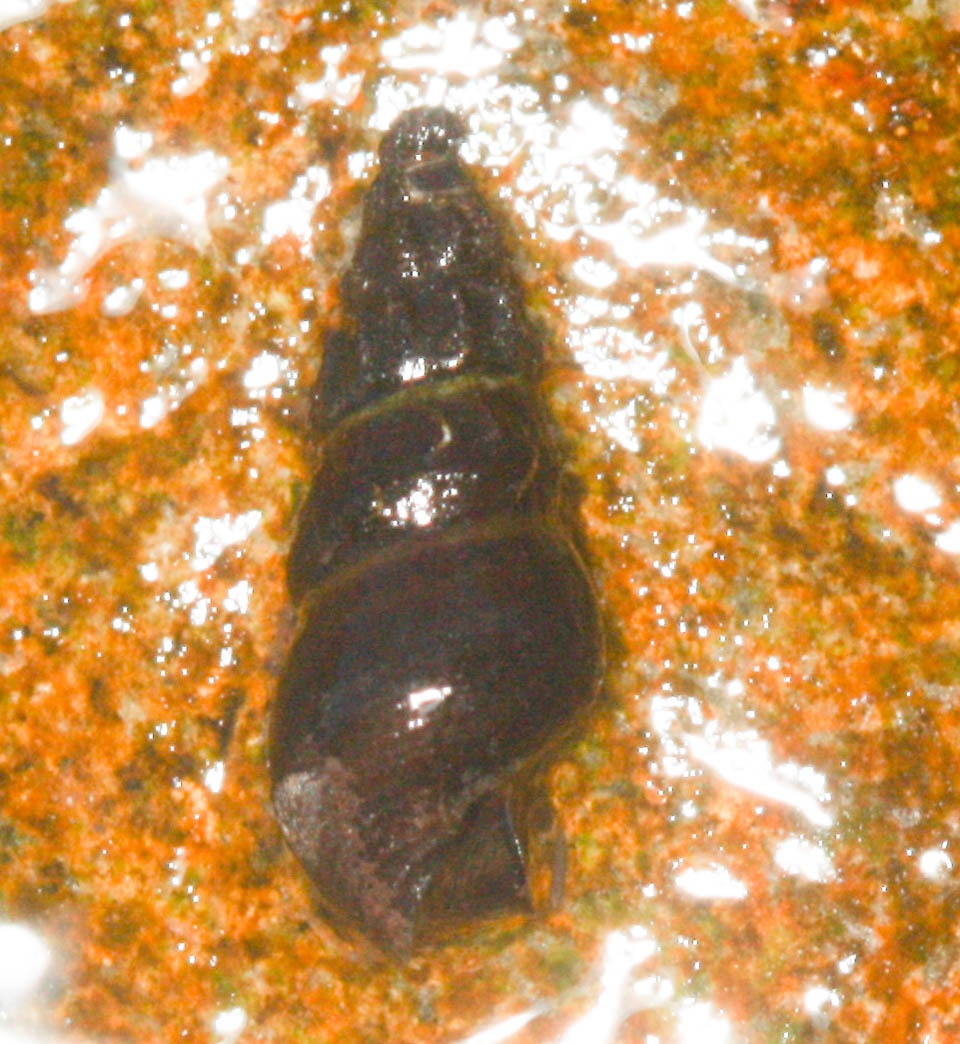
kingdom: Animalia
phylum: Mollusca
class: Gastropoda
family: Semisulcospiridae
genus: Juga
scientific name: Juga plicifera
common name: Pleated juga
